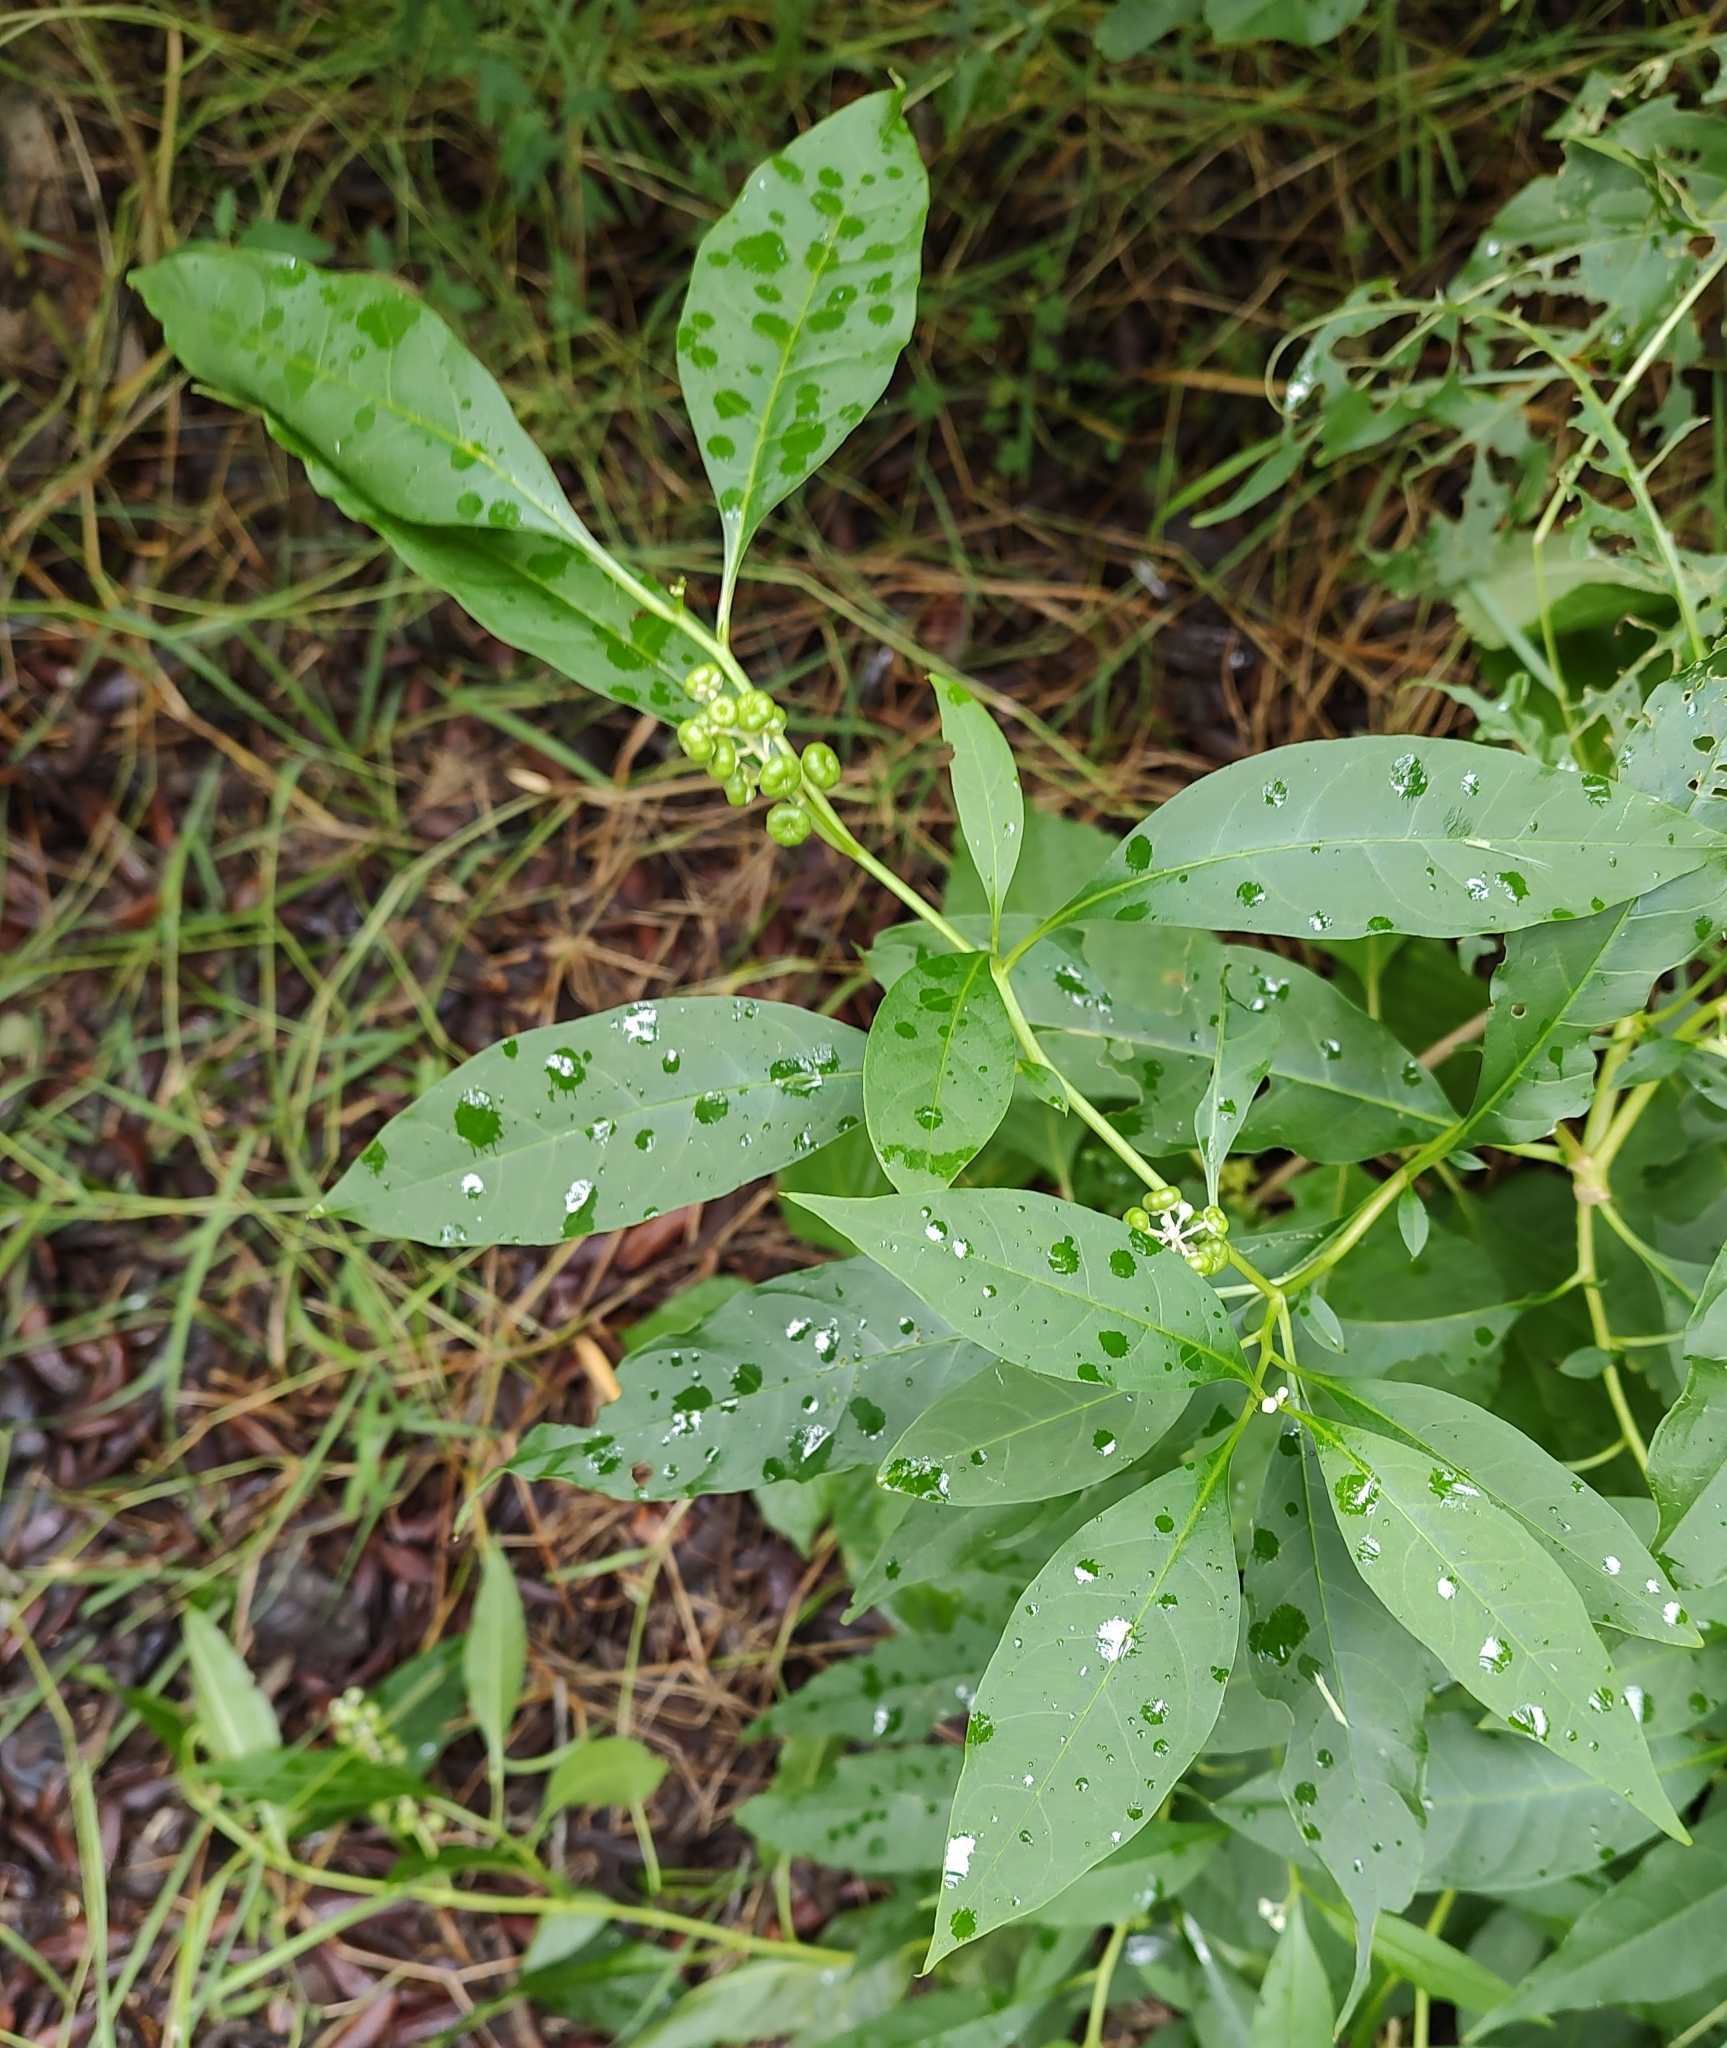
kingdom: Plantae
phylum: Tracheophyta
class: Magnoliopsida
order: Caryophyllales
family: Phytolaccaceae
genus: Phytolacca
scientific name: Phytolacca americana
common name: American pokeweed
